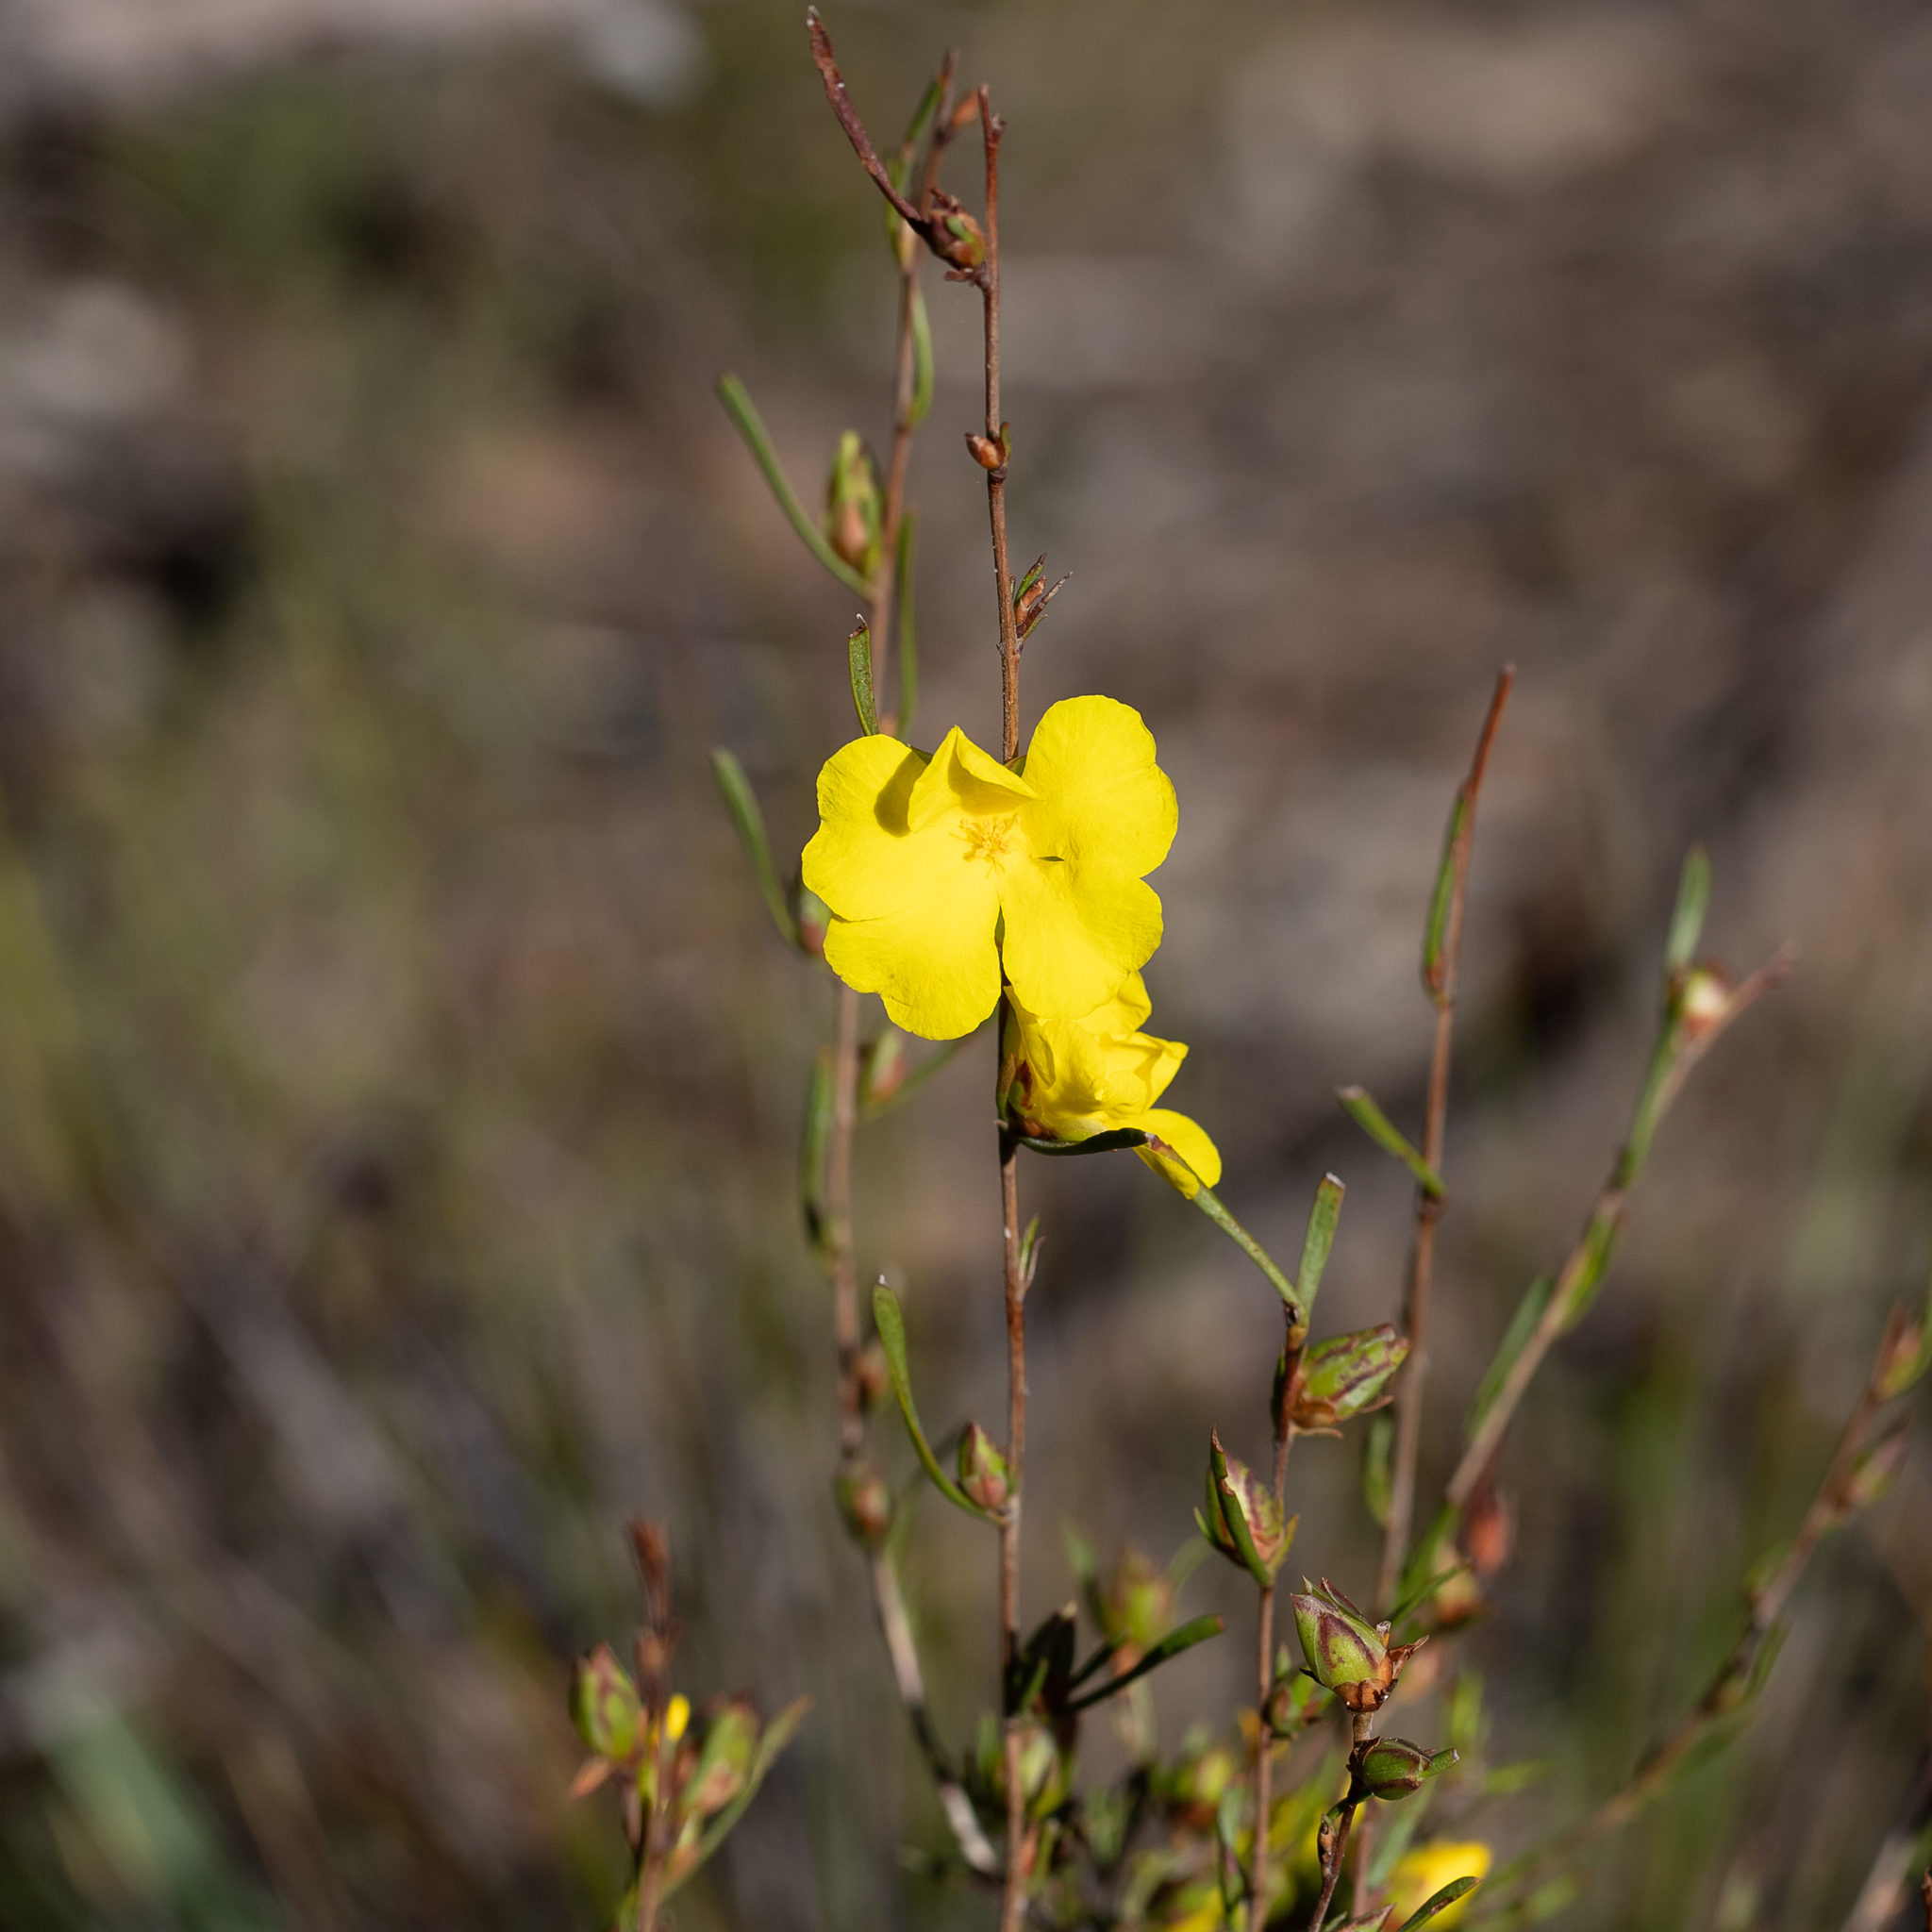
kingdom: Plantae
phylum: Tracheophyta
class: Magnoliopsida
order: Dilleniales
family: Dilleniaceae
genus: Hibbertia
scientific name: Hibbertia virgata
